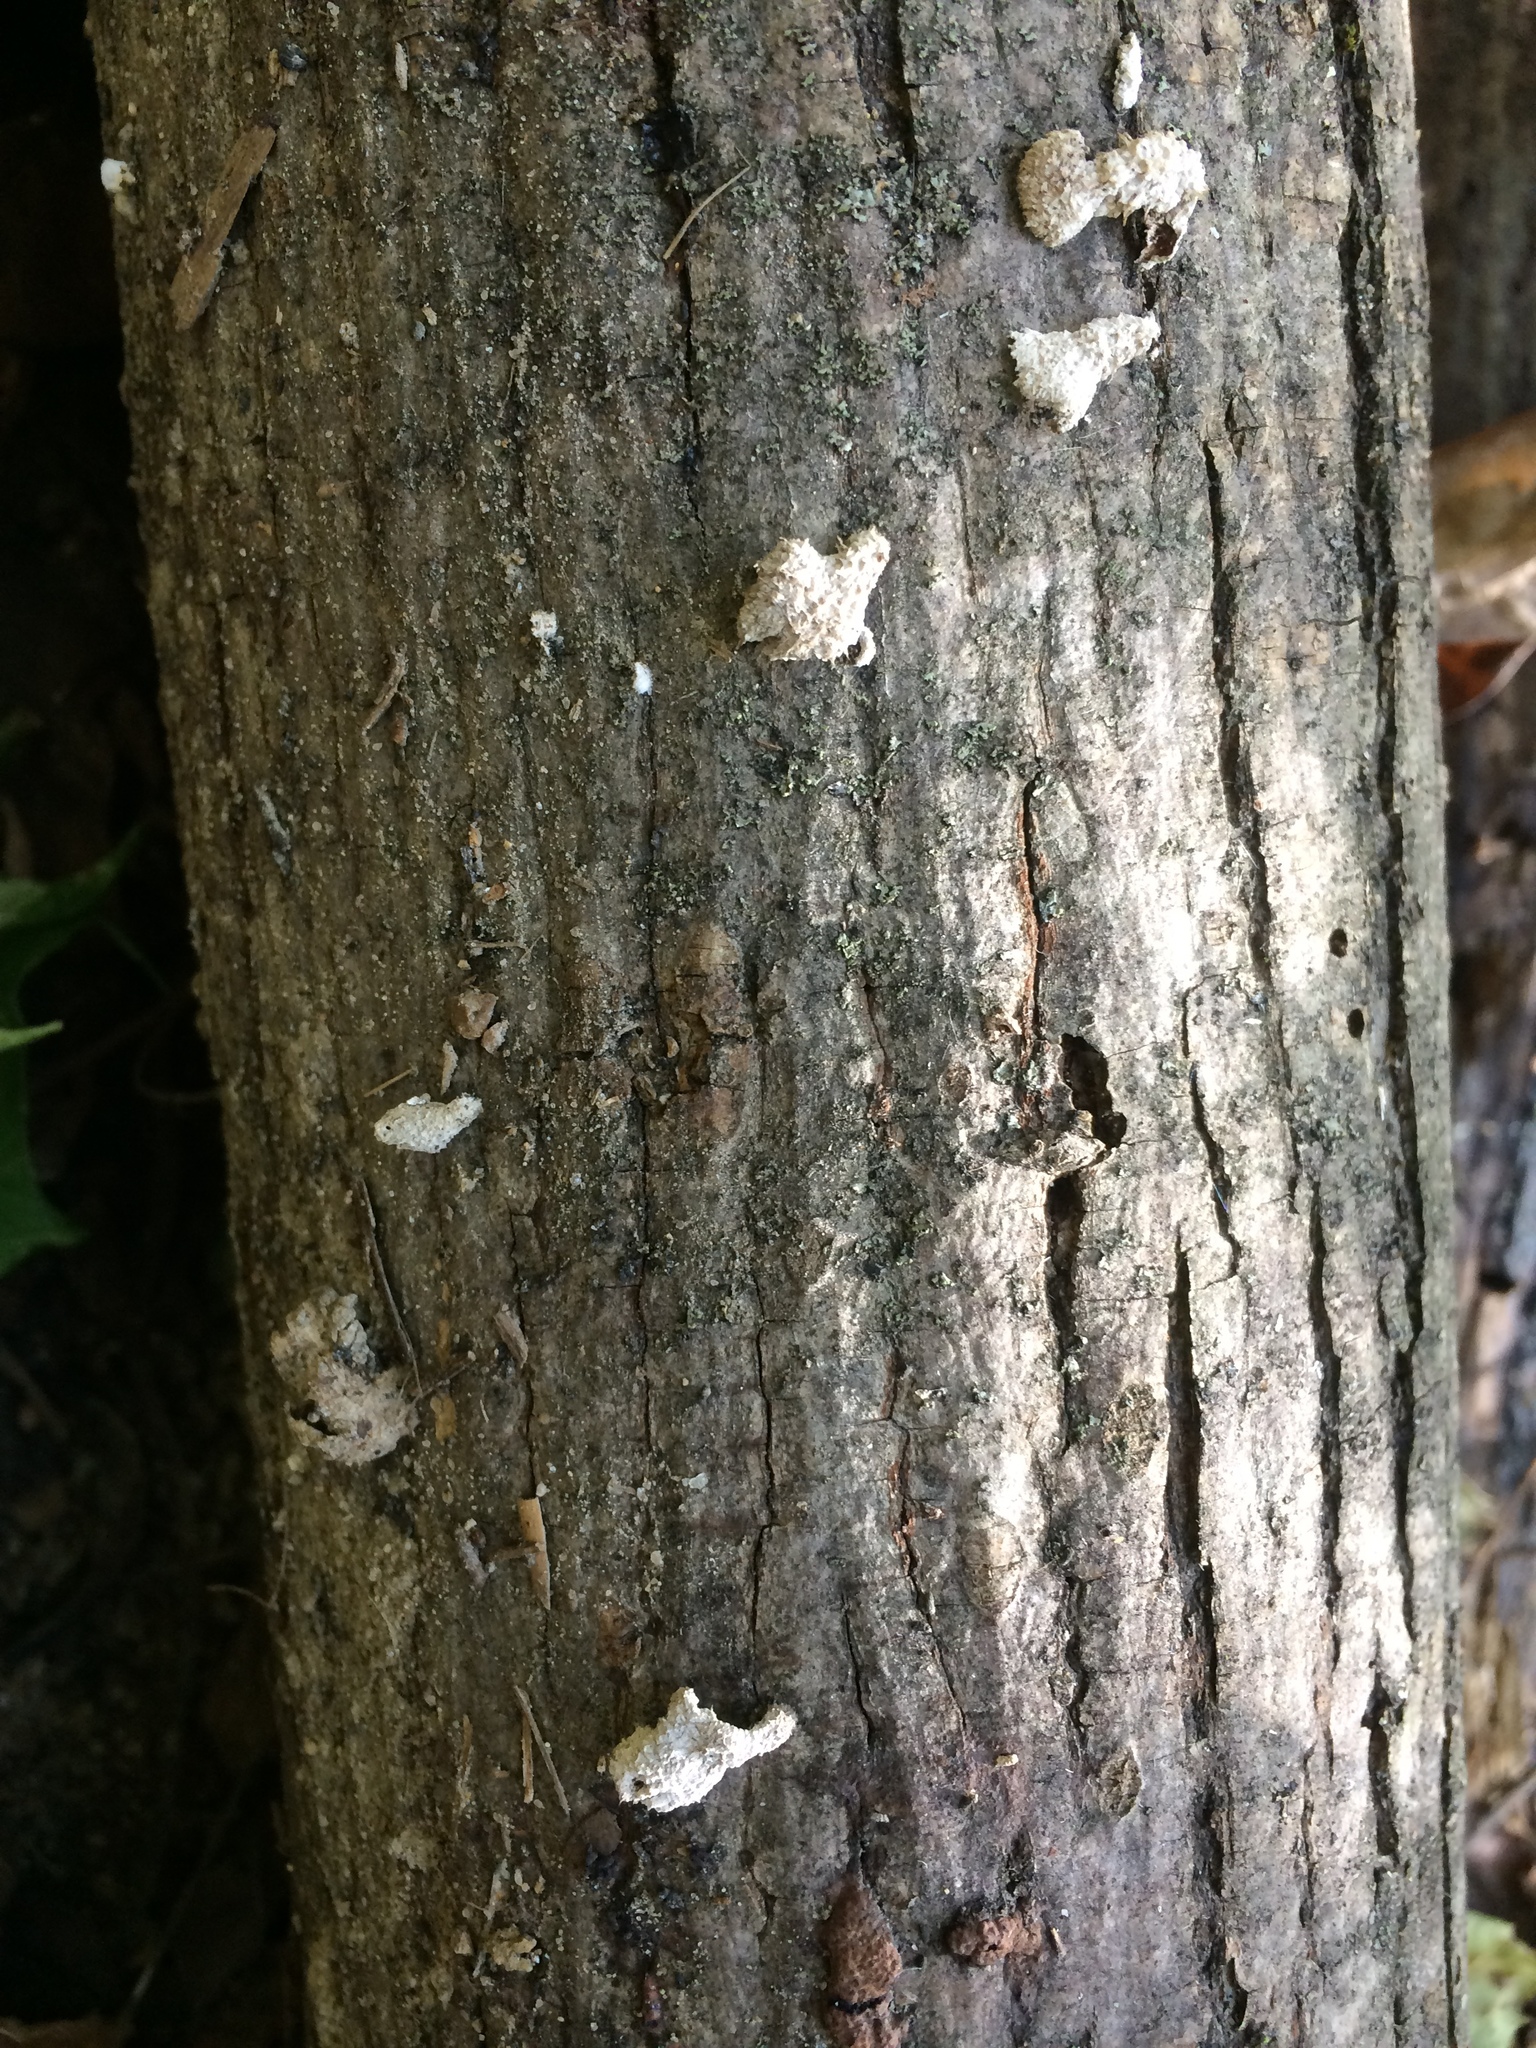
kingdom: Fungi
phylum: Basidiomycota
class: Agaricomycetes
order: Agaricales
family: Schizophyllaceae
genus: Schizophyllum
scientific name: Schizophyllum commune
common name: Common porecrust
